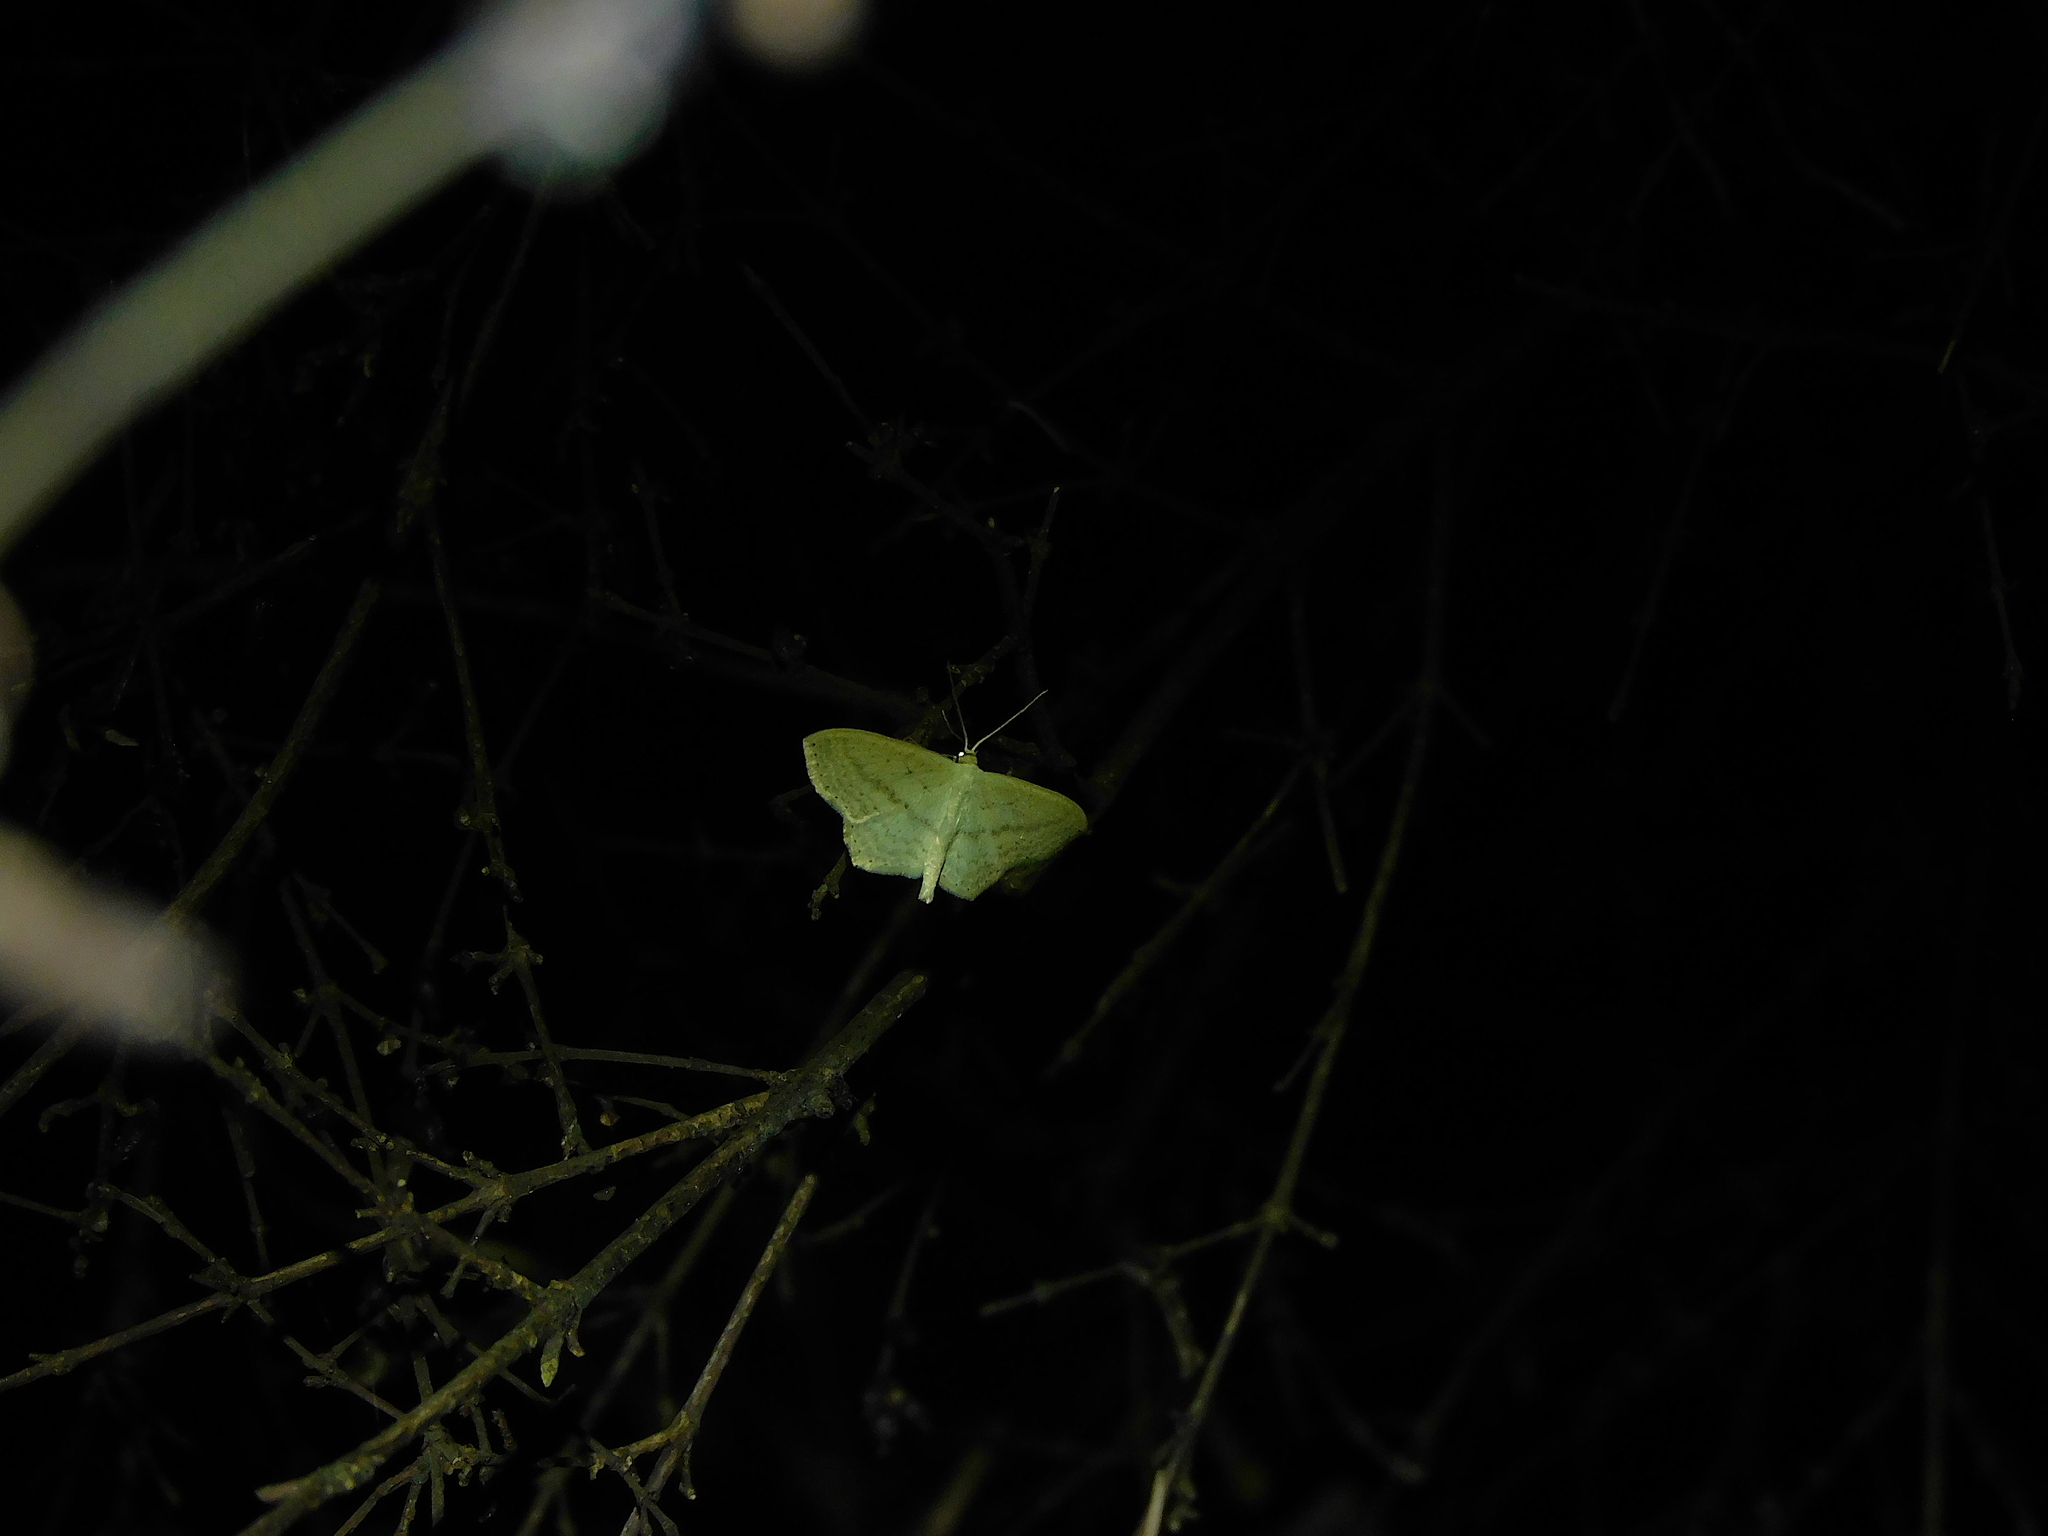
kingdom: Animalia
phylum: Arthropoda
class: Insecta
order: Lepidoptera
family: Geometridae
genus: Scopula
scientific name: Scopula perlata
